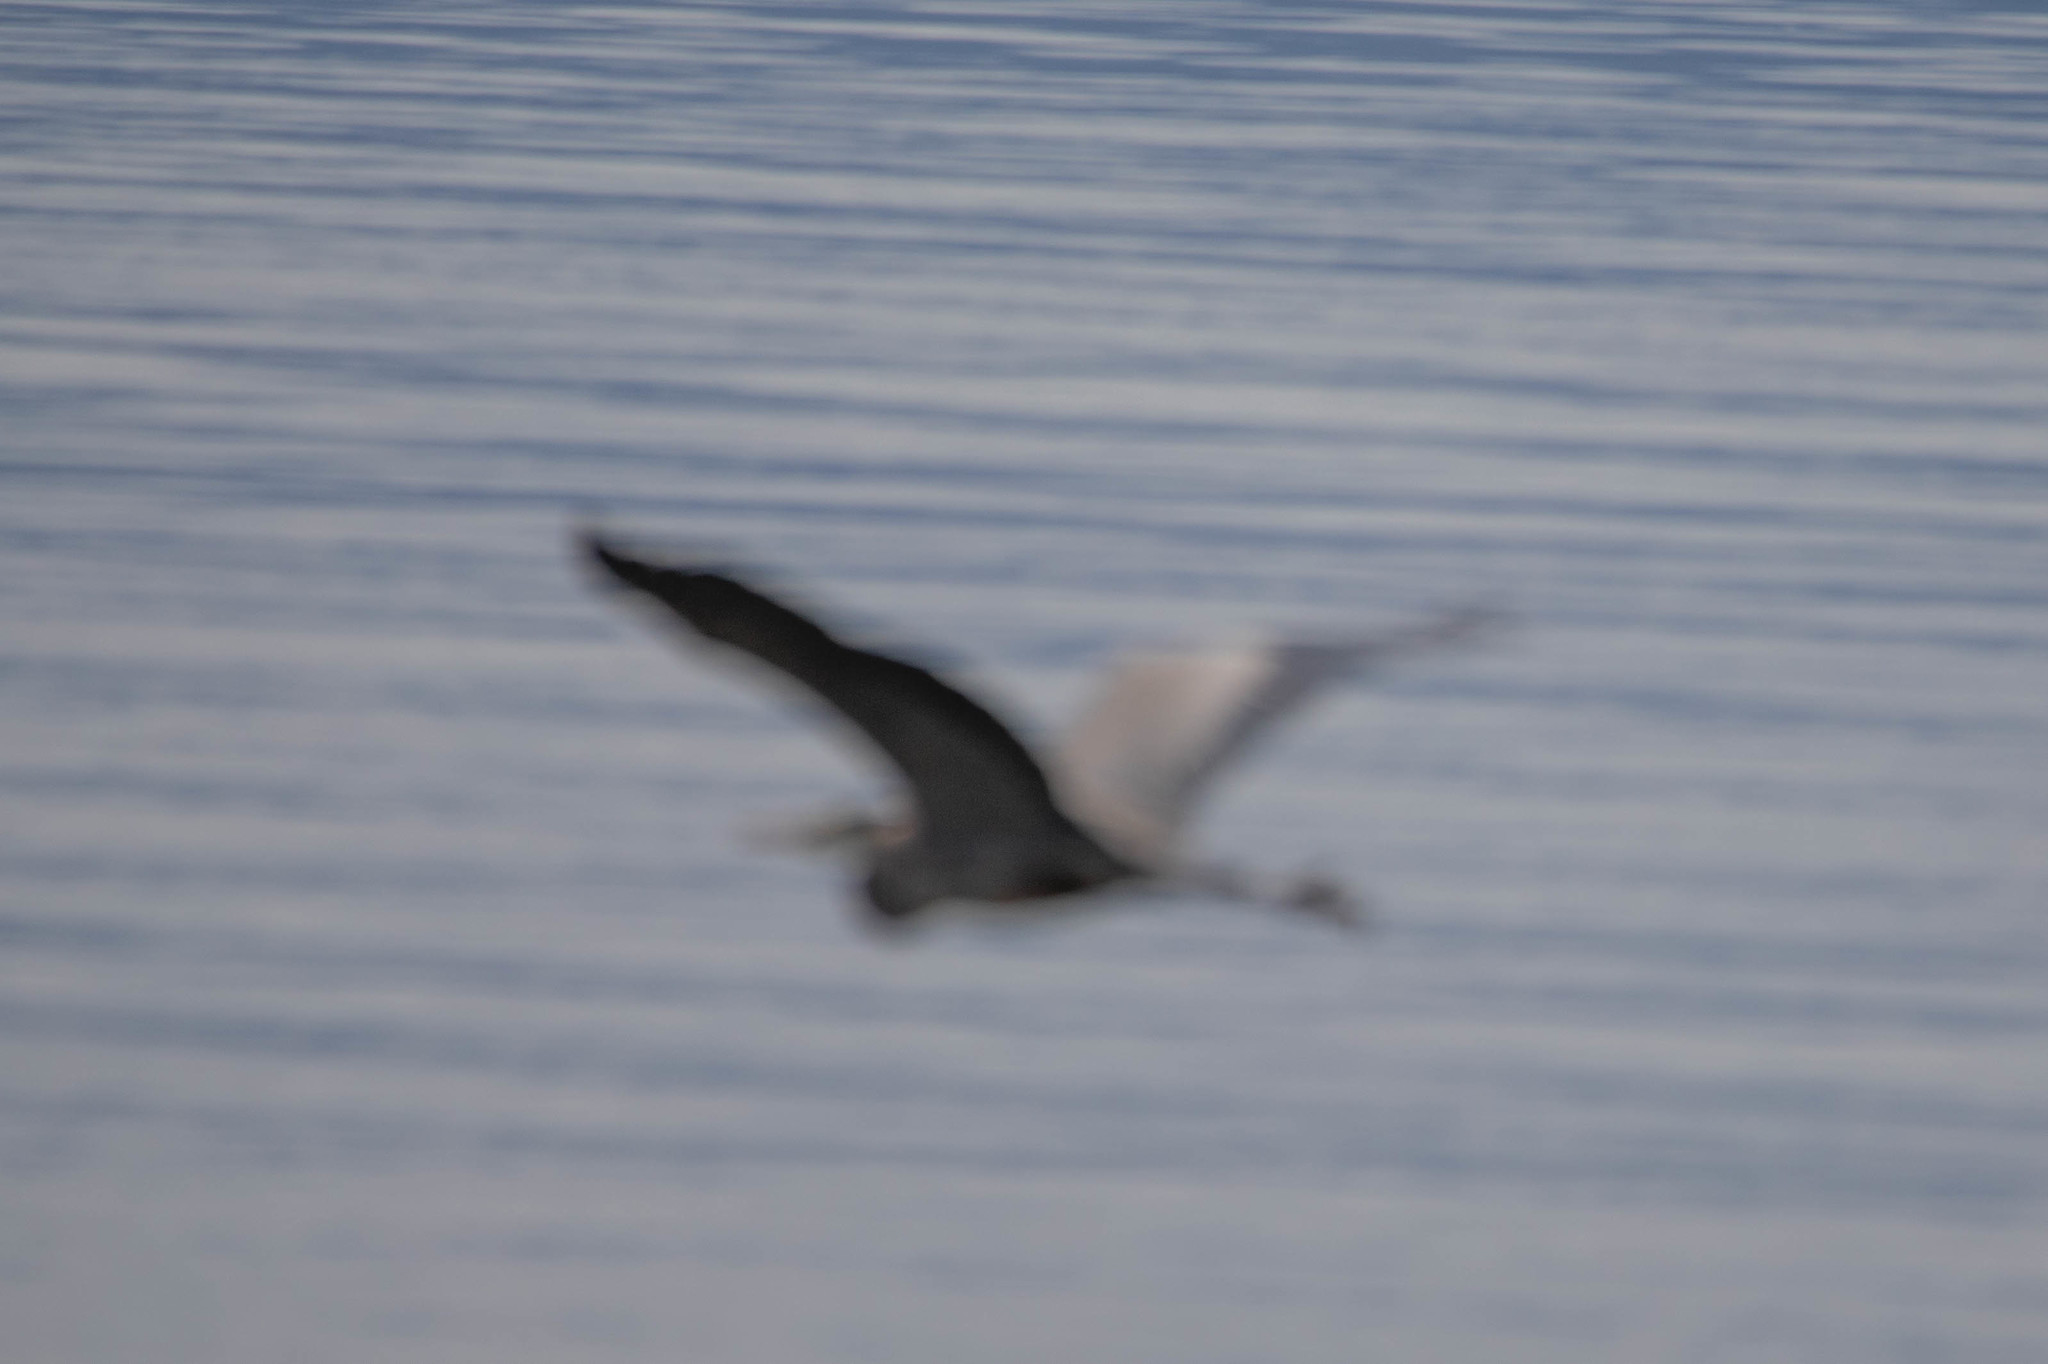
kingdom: Animalia
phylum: Chordata
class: Aves
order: Pelecaniformes
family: Ardeidae
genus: Ardea
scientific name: Ardea herodias
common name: Great blue heron
